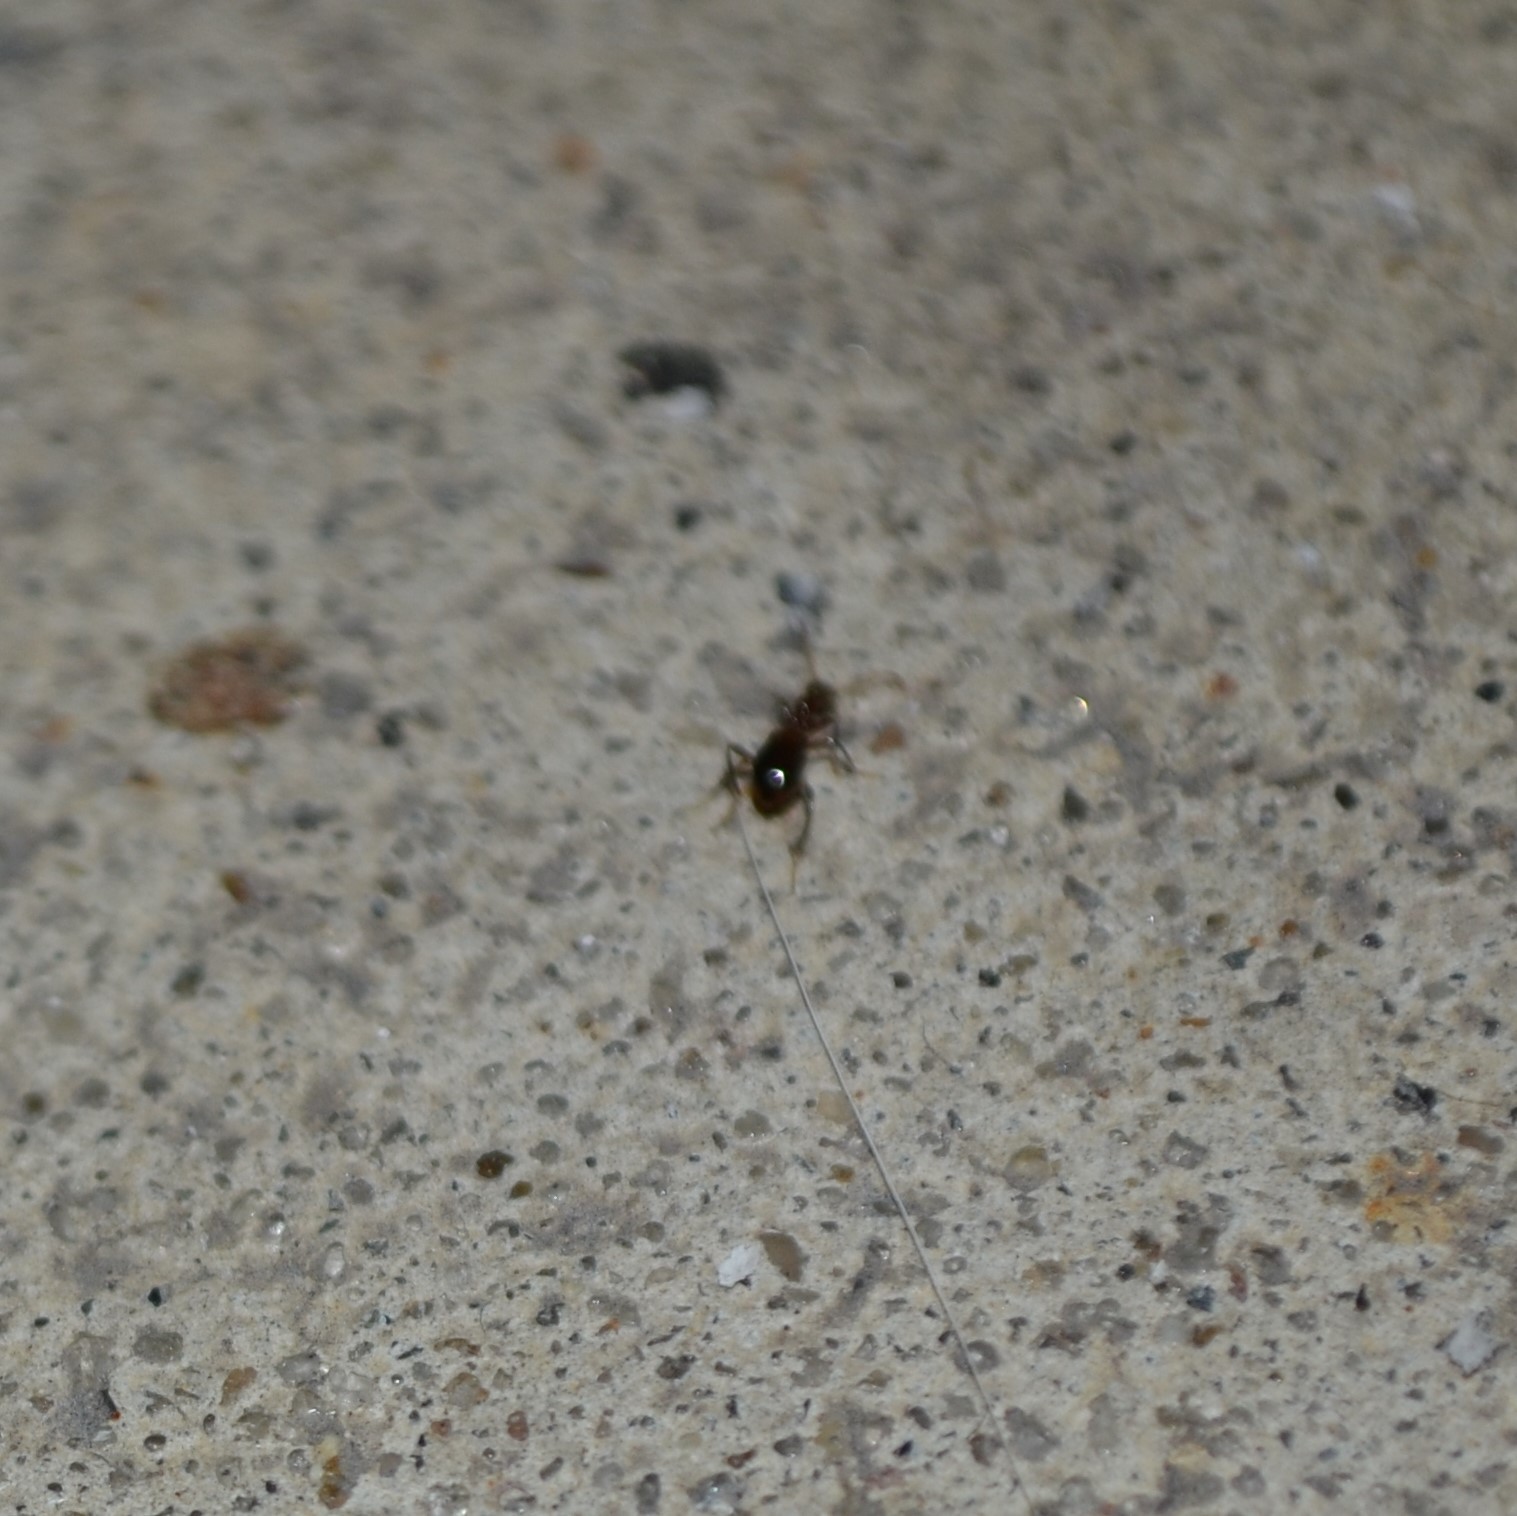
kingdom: Animalia
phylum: Arthropoda
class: Insecta
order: Coleoptera
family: Anthicidae
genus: Acanthinus
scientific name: Acanthinus
